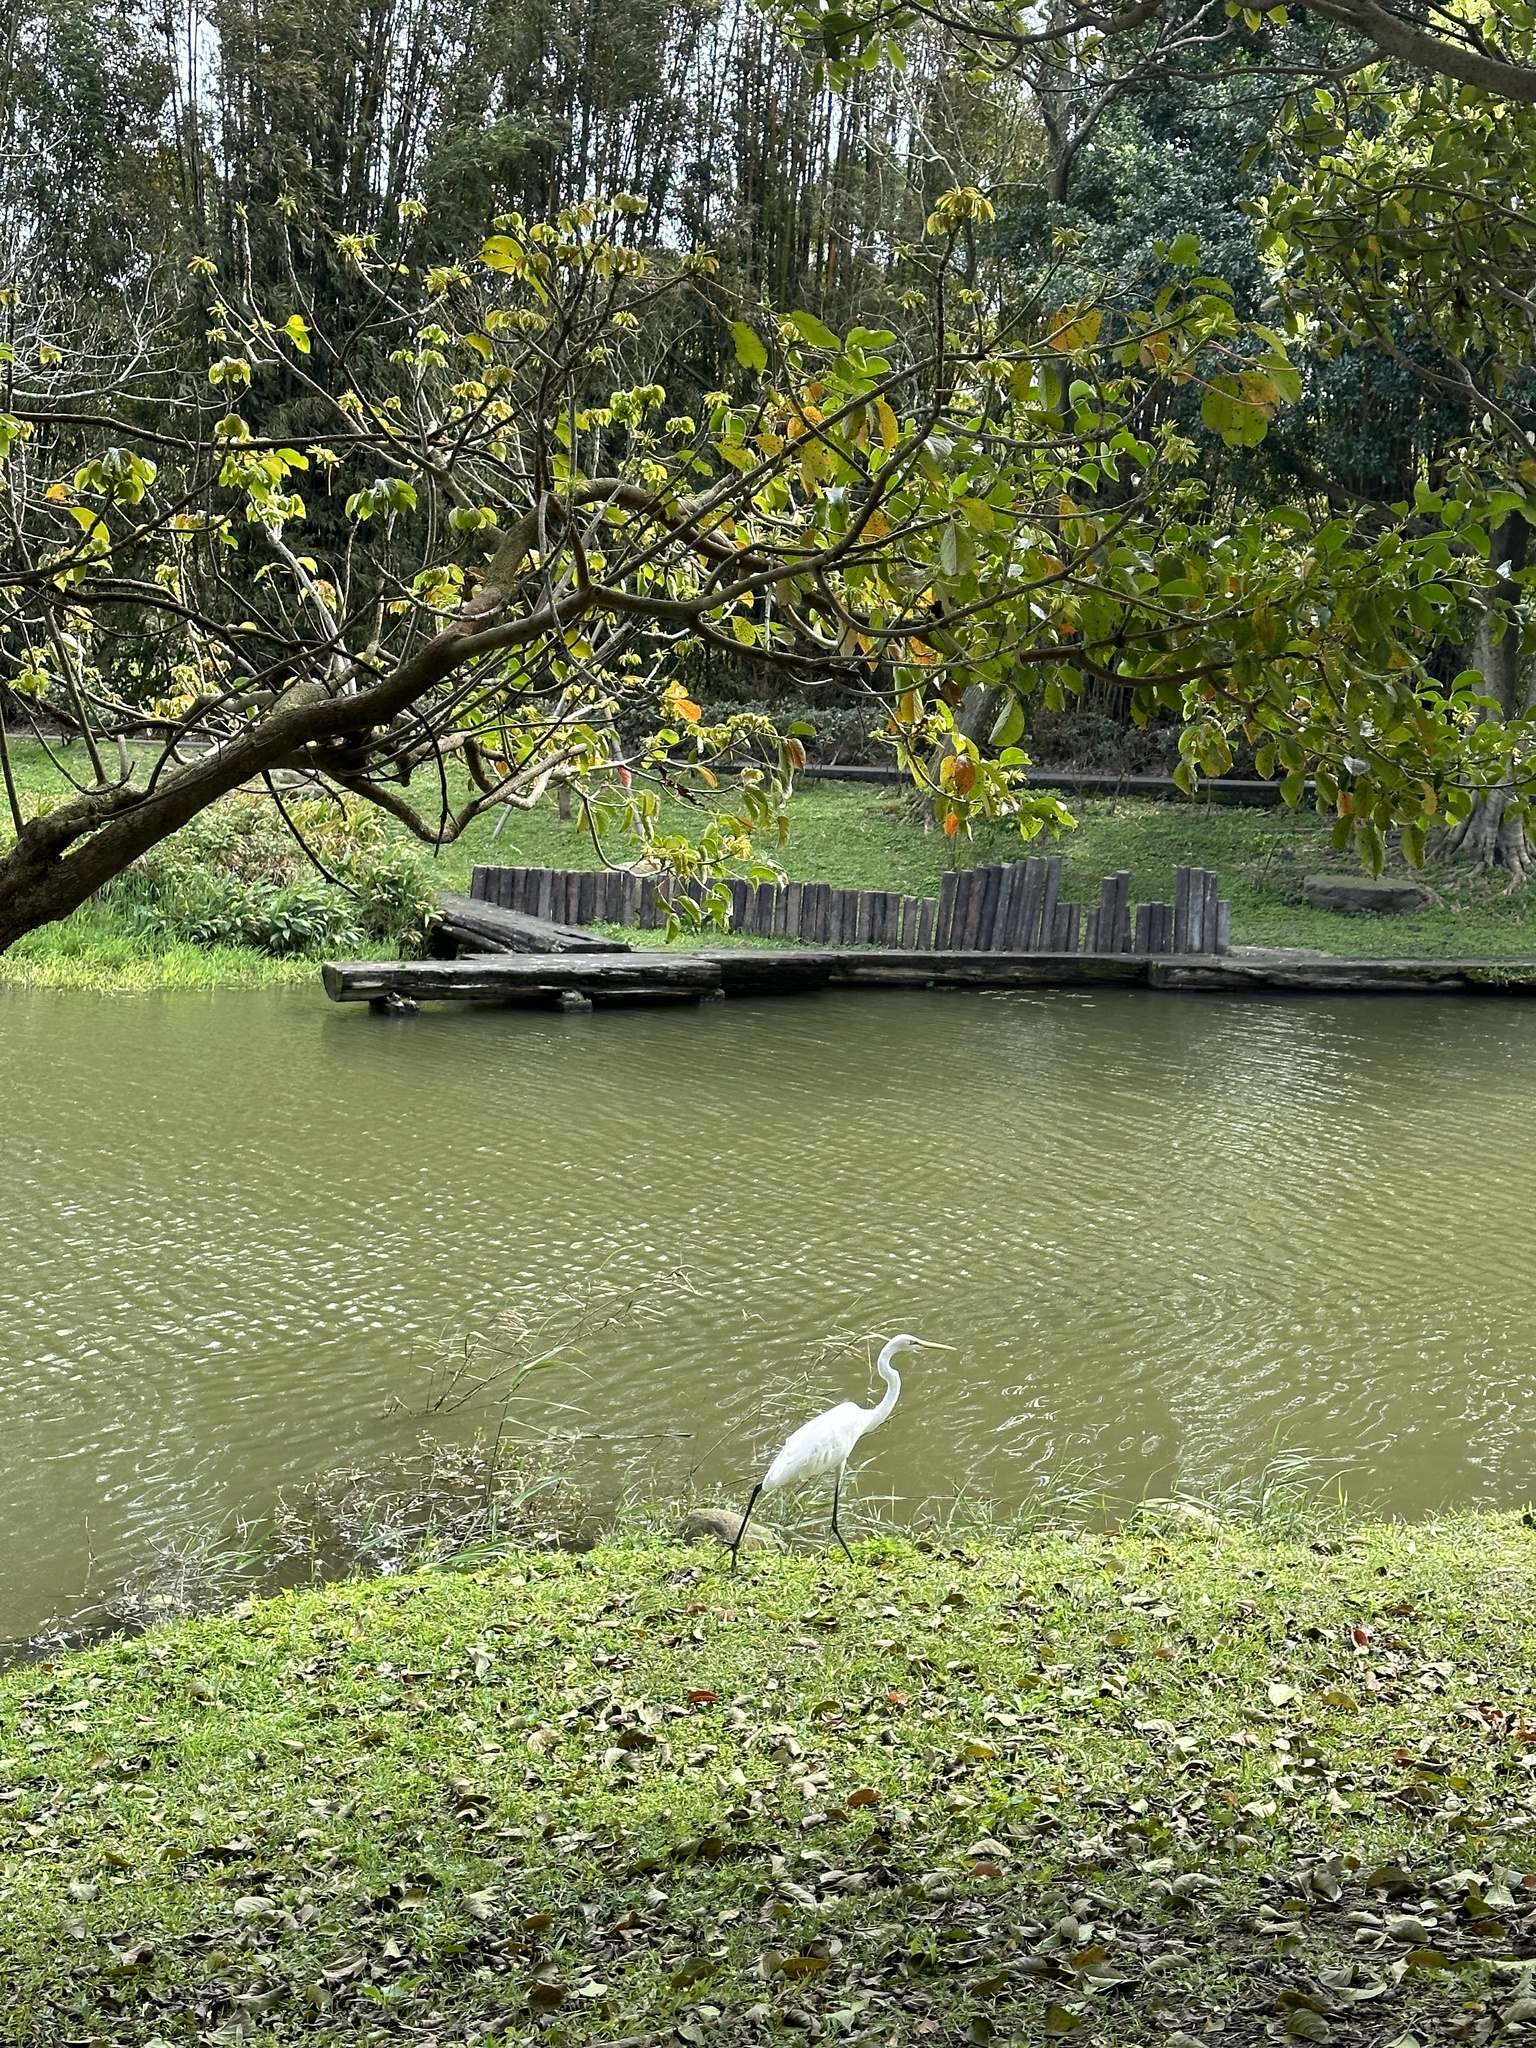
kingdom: Animalia
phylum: Chordata
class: Aves
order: Pelecaniformes
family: Ardeidae
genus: Ardea
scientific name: Ardea alba
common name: Great egret
